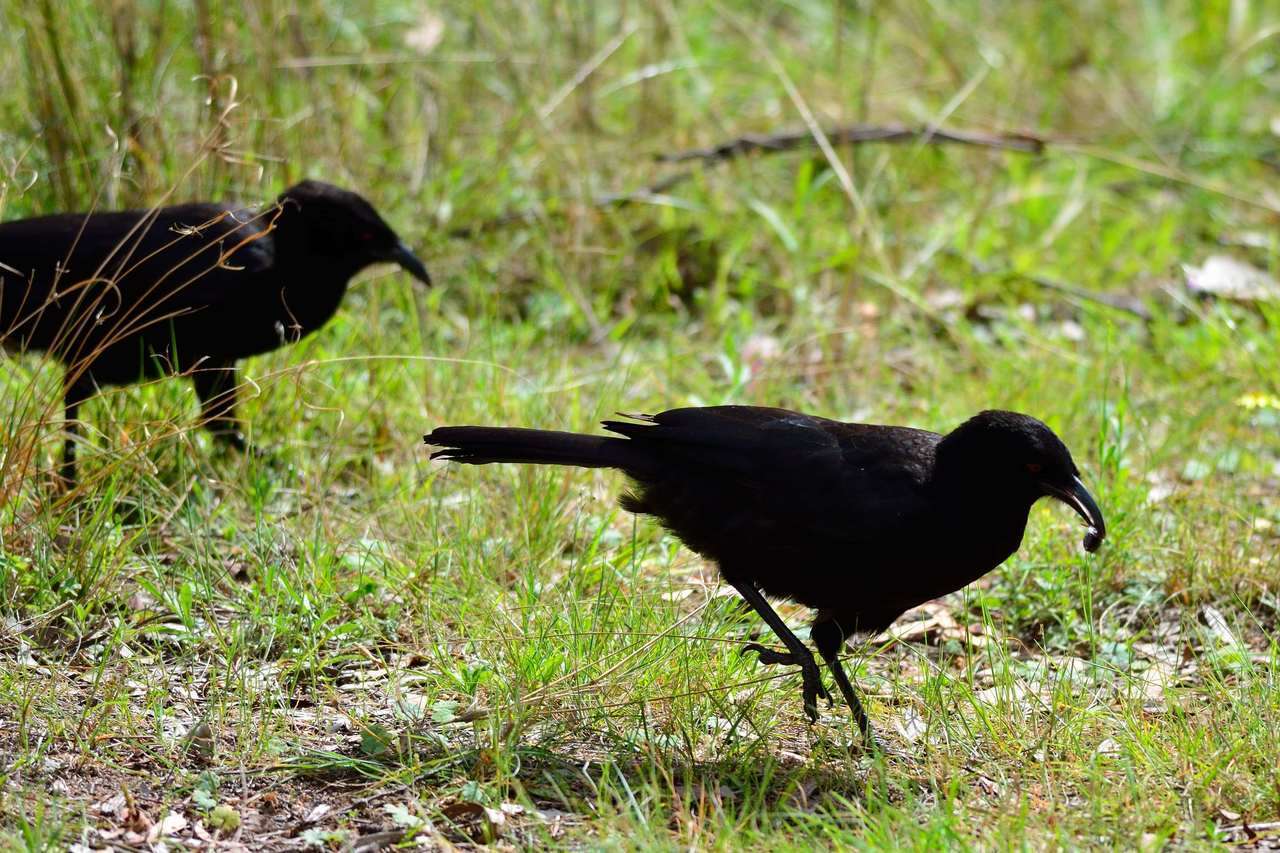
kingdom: Animalia
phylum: Chordata
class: Aves
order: Passeriformes
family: Corcoracidae
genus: Corcorax
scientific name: Corcorax melanoramphos
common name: White-winged chough
